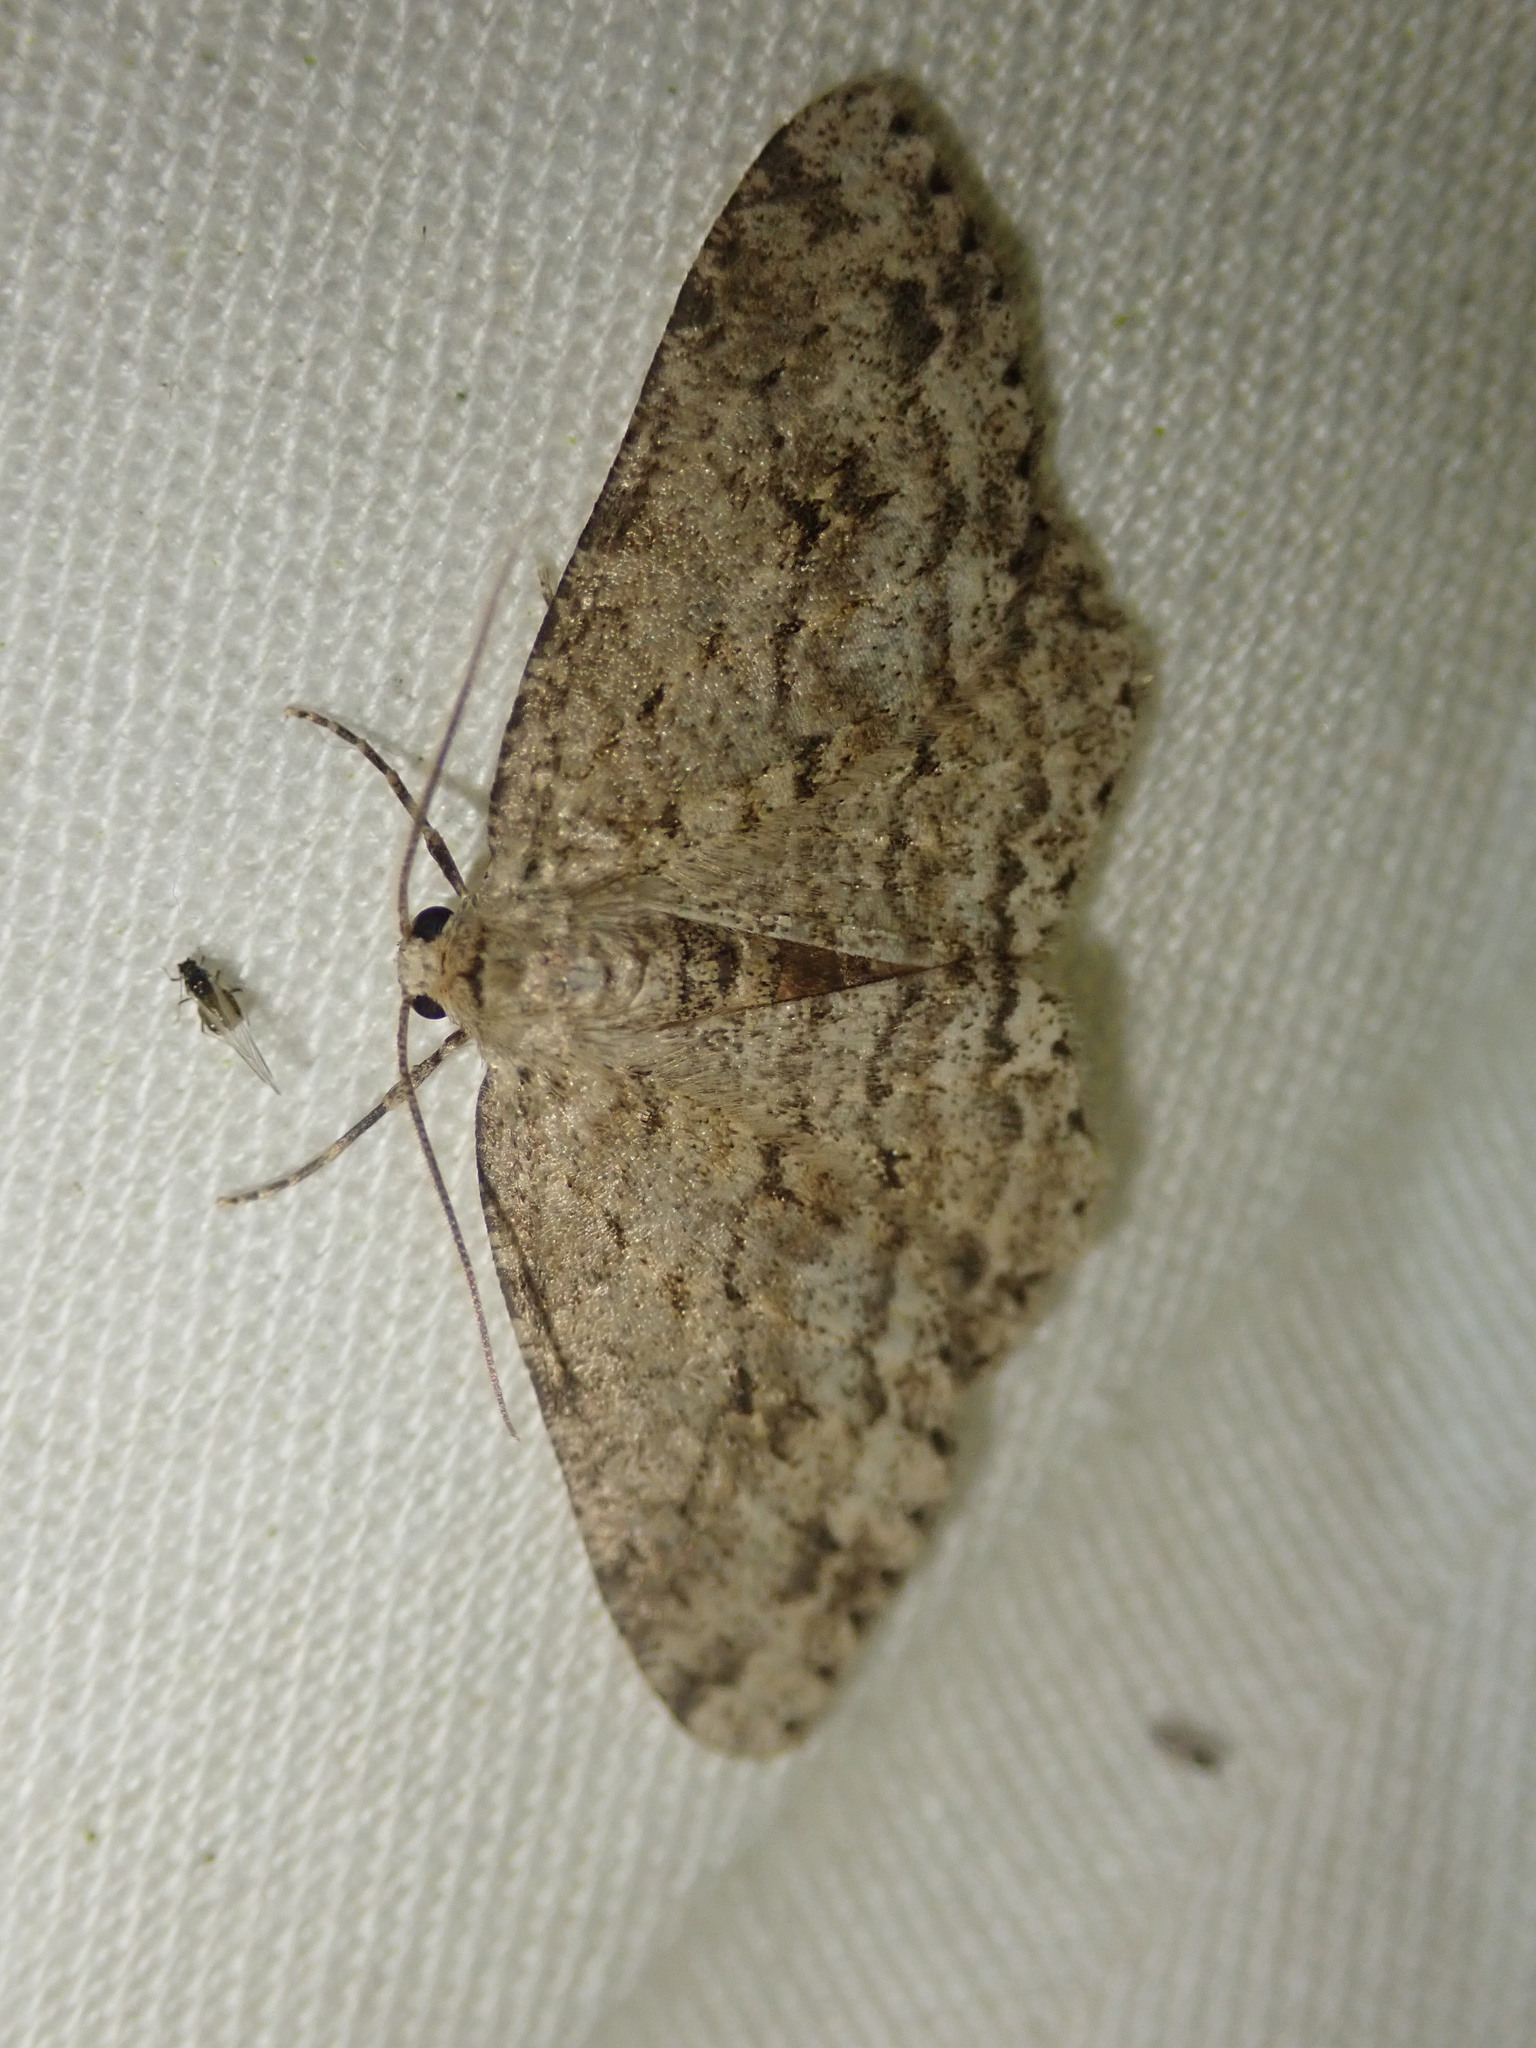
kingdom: Animalia
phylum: Arthropoda
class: Insecta
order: Lepidoptera
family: Geometridae
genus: Ectropis
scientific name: Ectropis crepuscularia
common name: Engrailed
